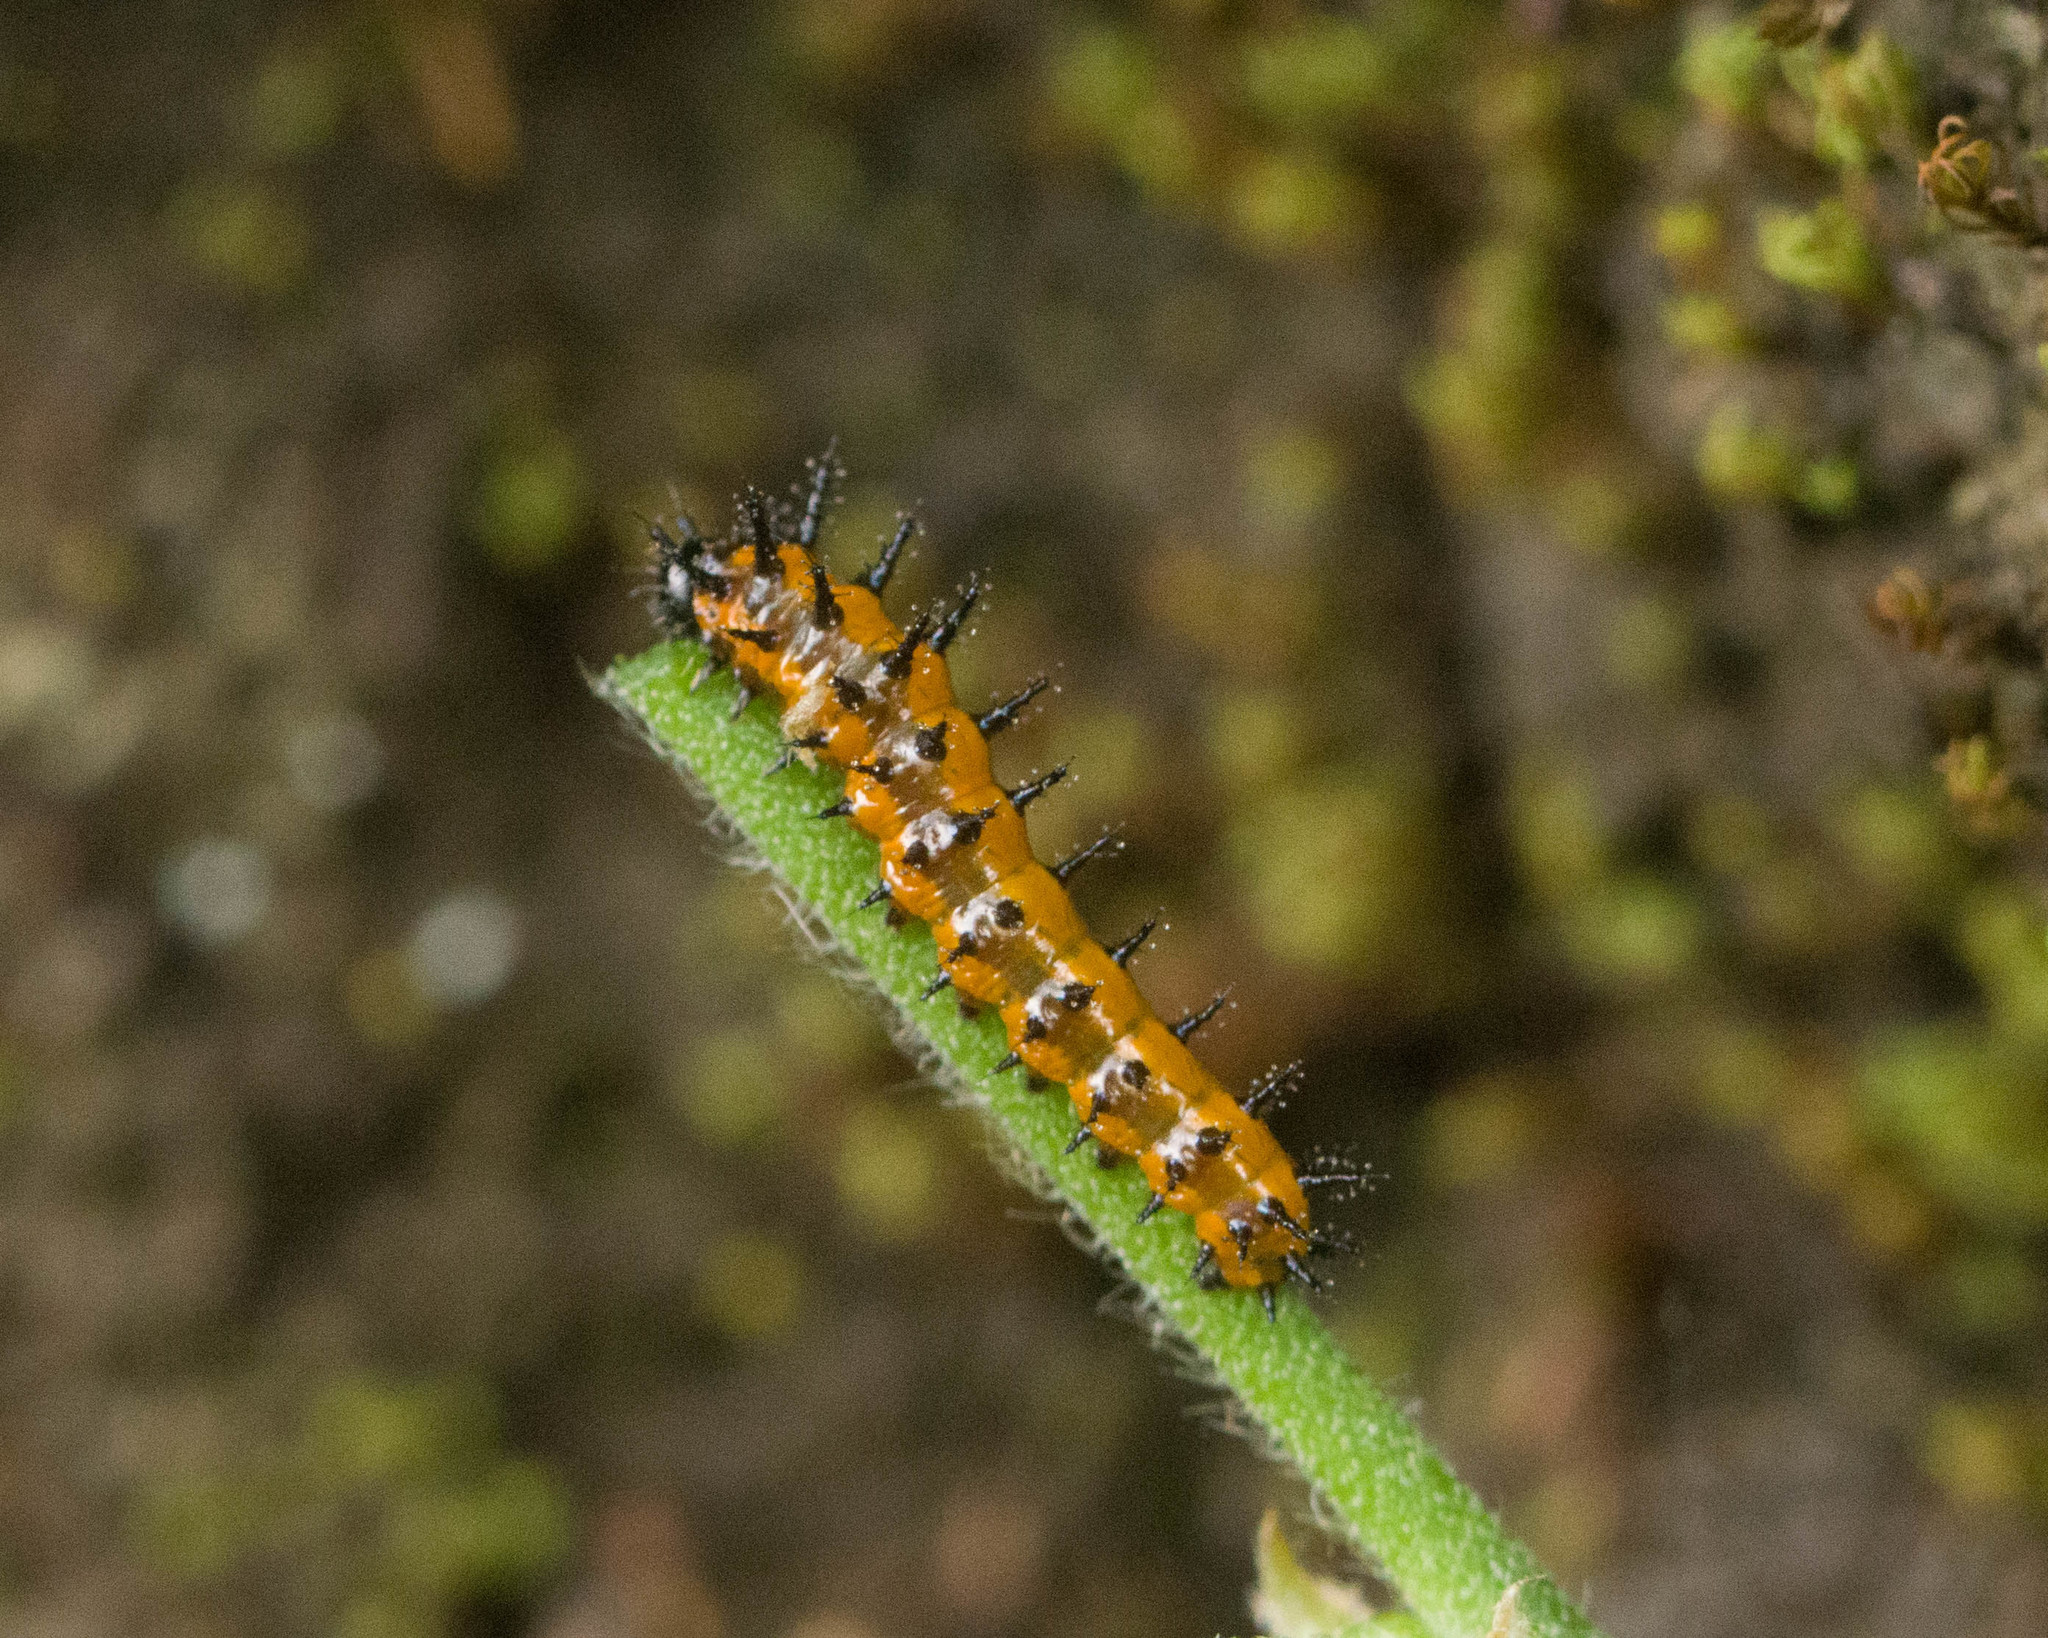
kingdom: Animalia
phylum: Arthropoda
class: Insecta
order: Lepidoptera
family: Nymphalidae
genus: Dione
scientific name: Dione vanillae
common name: Gulf fritillary
